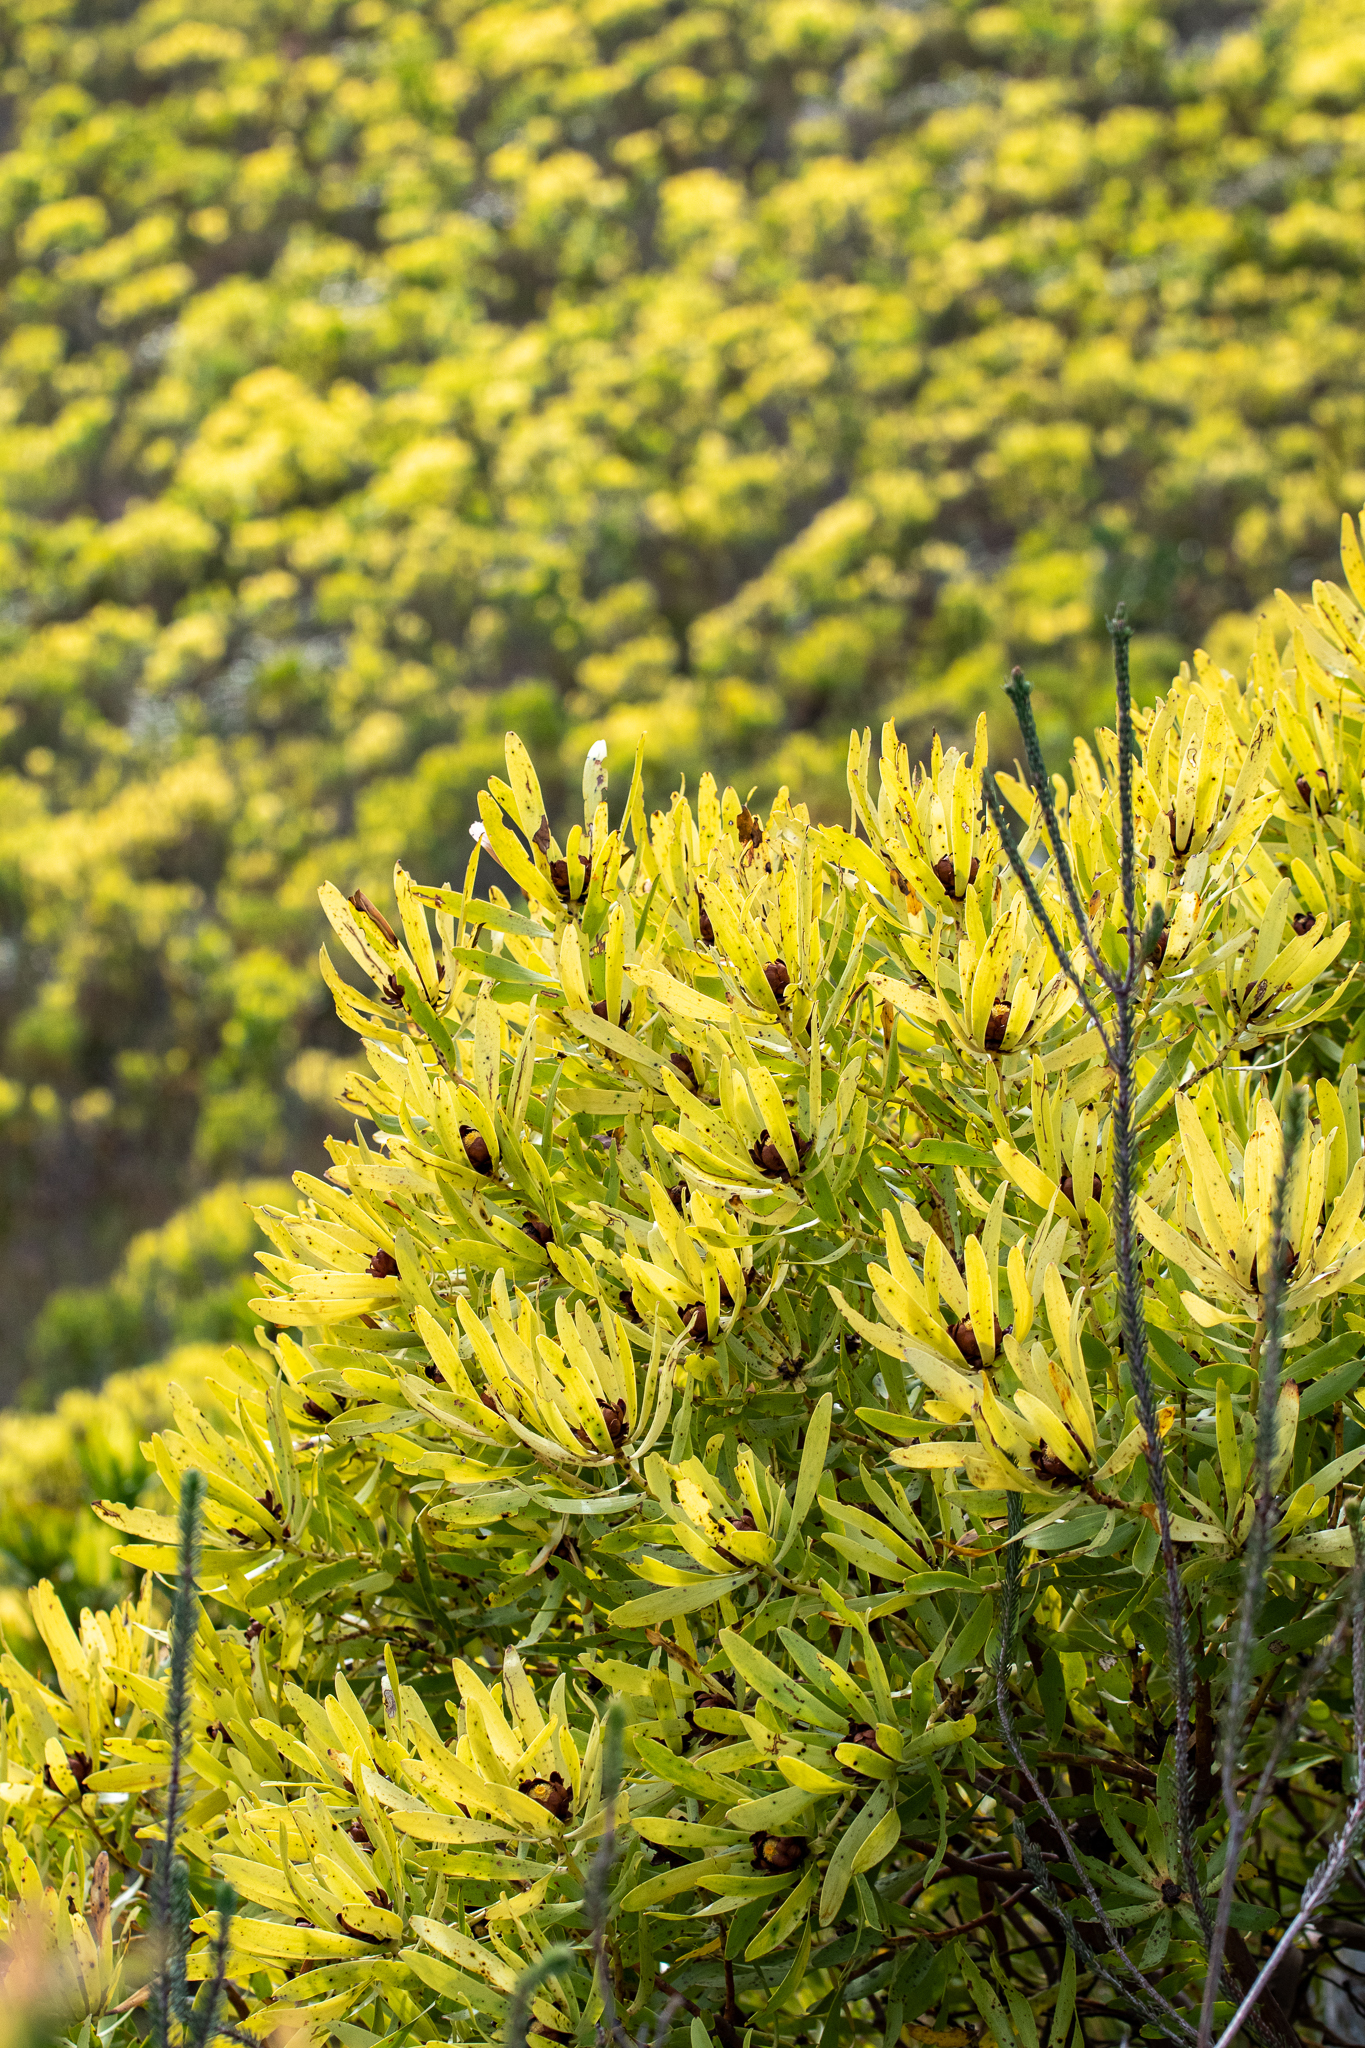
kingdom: Plantae
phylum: Tracheophyta
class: Magnoliopsida
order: Proteales
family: Proteaceae
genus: Leucadendron
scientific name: Leucadendron microcephalum
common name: Oilbract conebush
